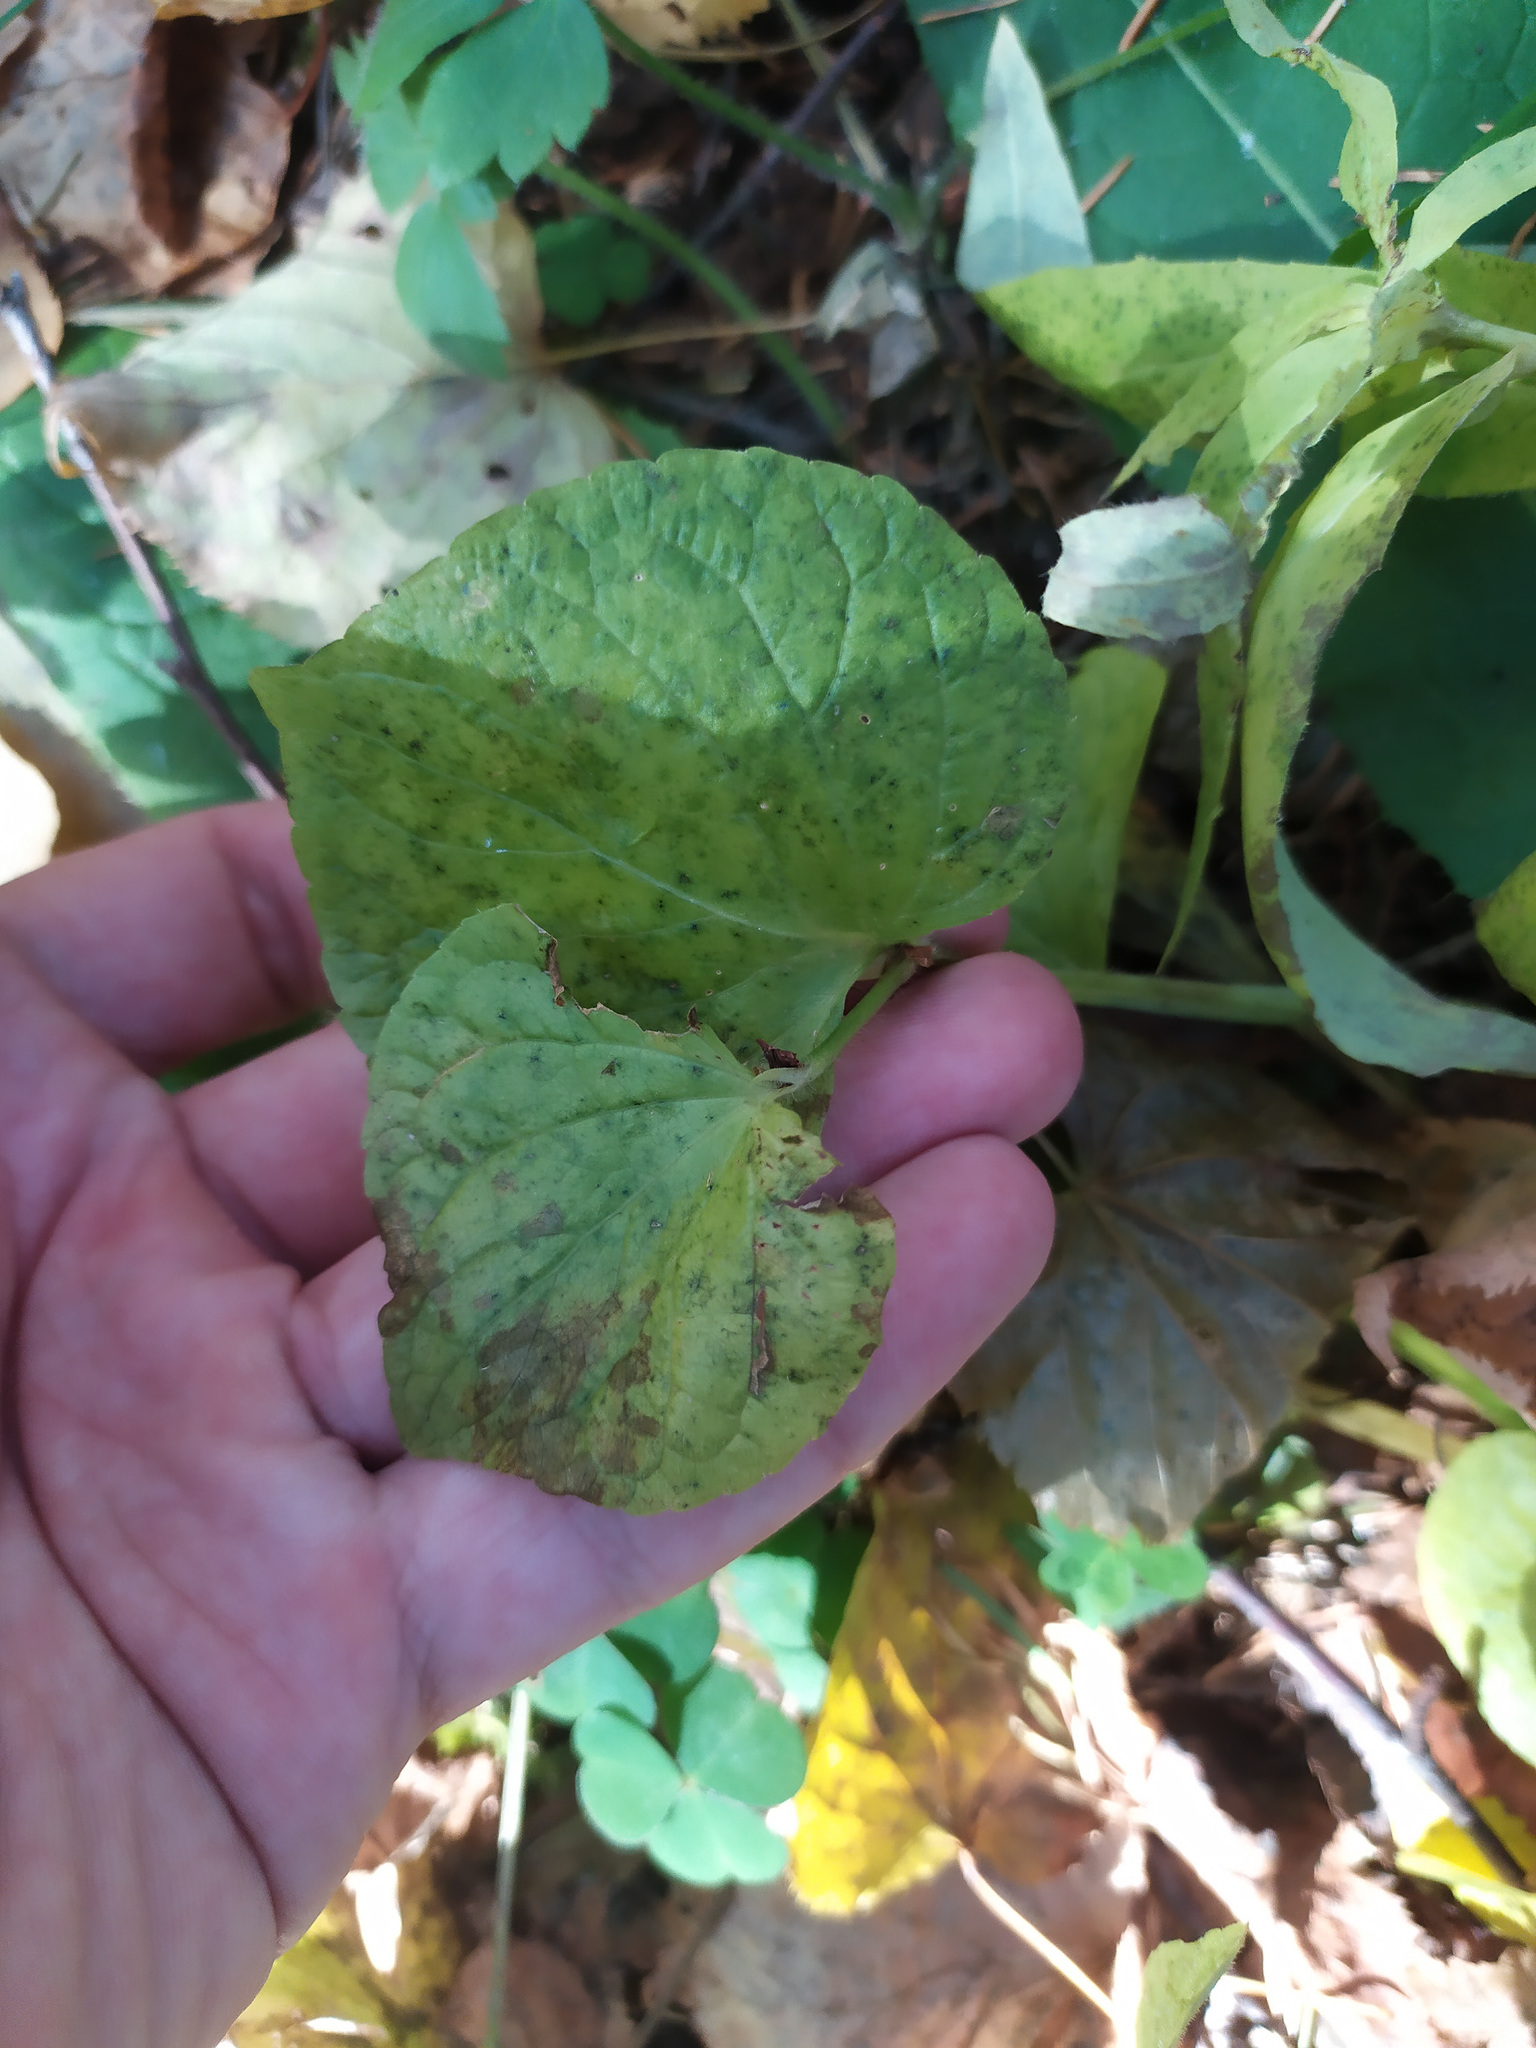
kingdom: Plantae
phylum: Tracheophyta
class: Magnoliopsida
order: Malpighiales
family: Violaceae
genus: Viola
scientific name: Viola mirabilis
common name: Wonder violet
